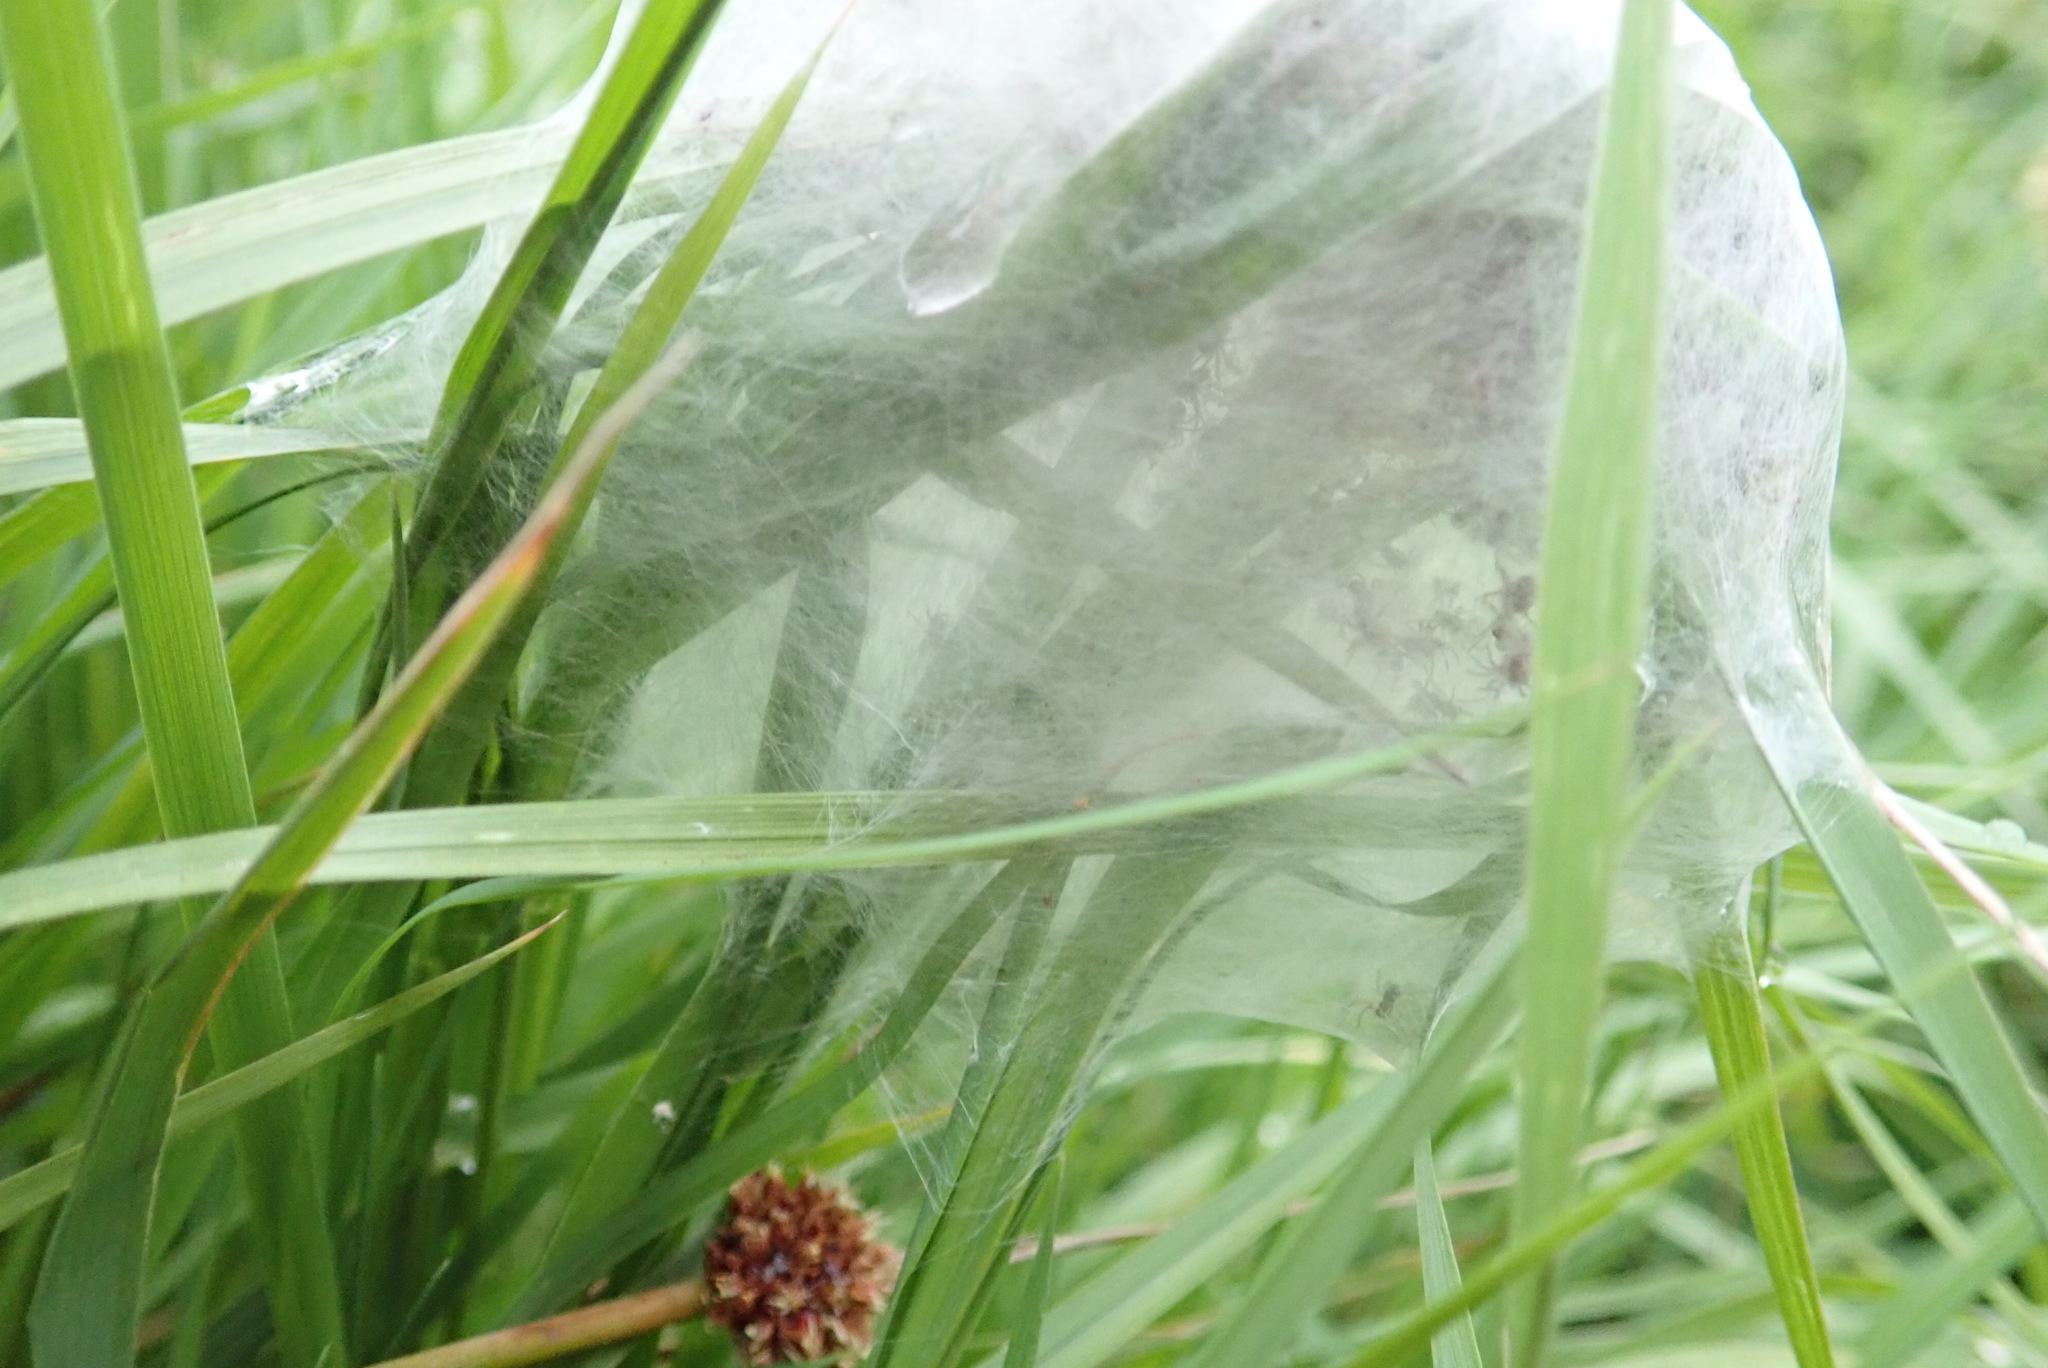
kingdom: Animalia
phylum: Arthropoda
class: Arachnida
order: Araneae
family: Pisauridae
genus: Dolomedes
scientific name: Dolomedes minor
